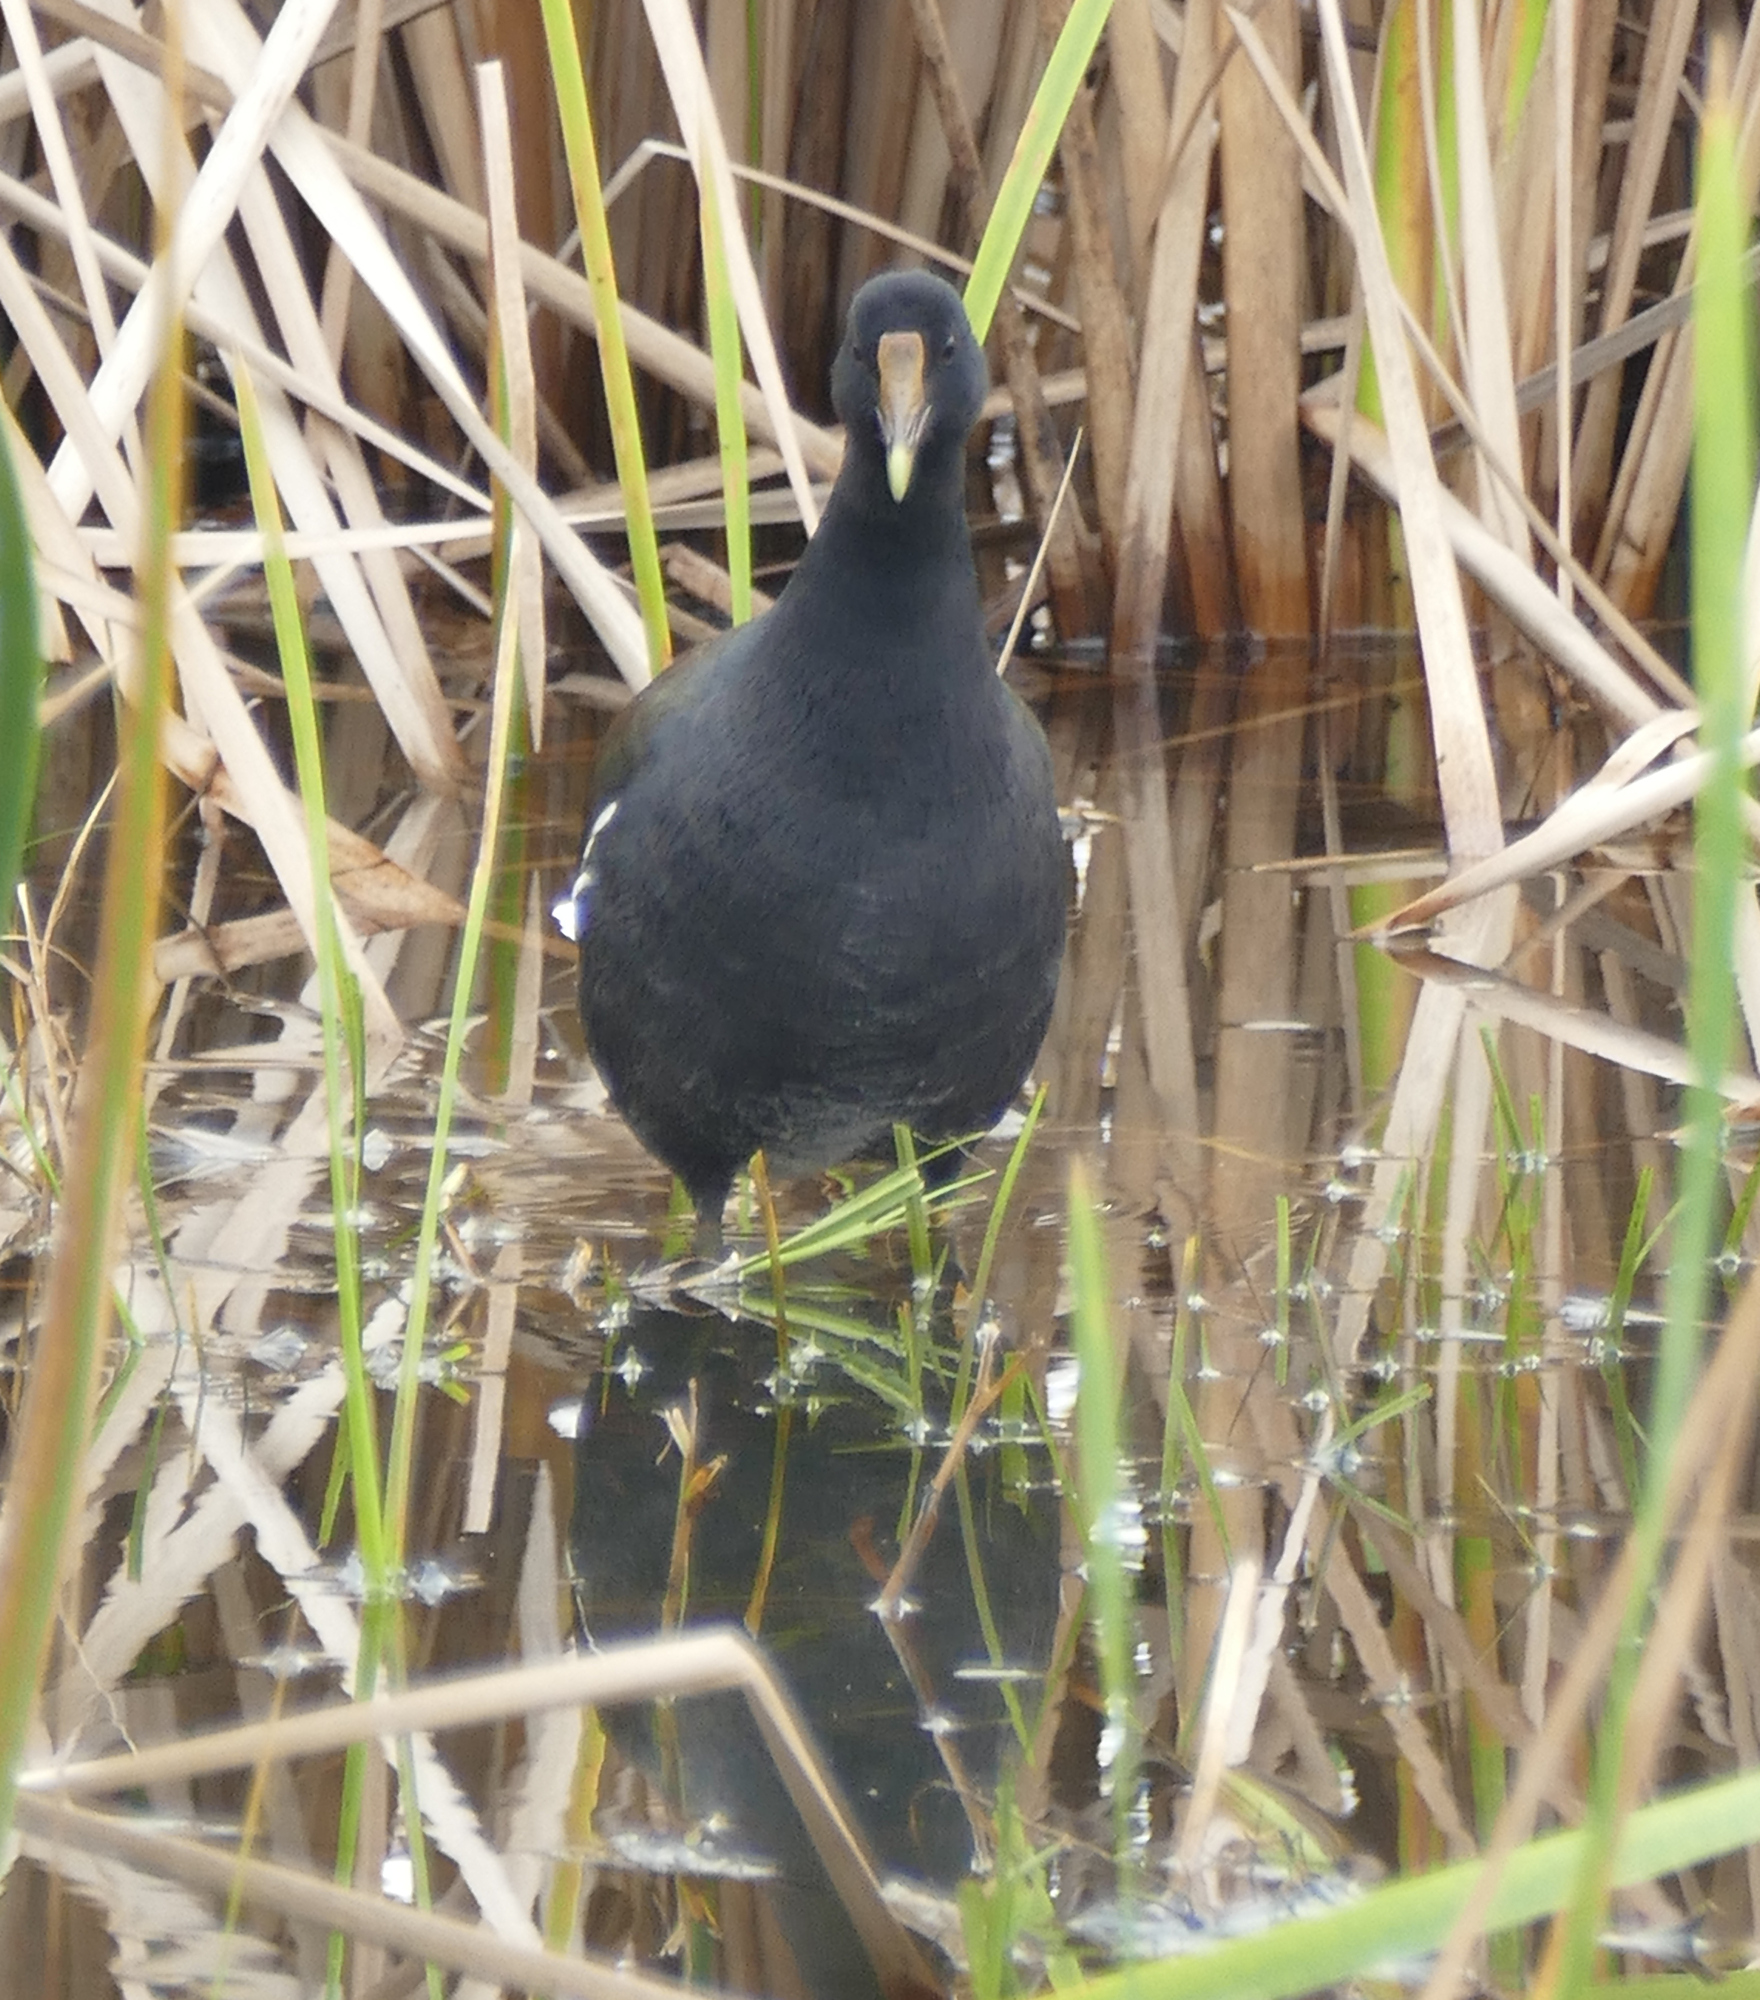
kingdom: Animalia
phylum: Chordata
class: Aves
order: Gruiformes
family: Rallidae
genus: Gallinula
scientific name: Gallinula chloropus
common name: Common moorhen
